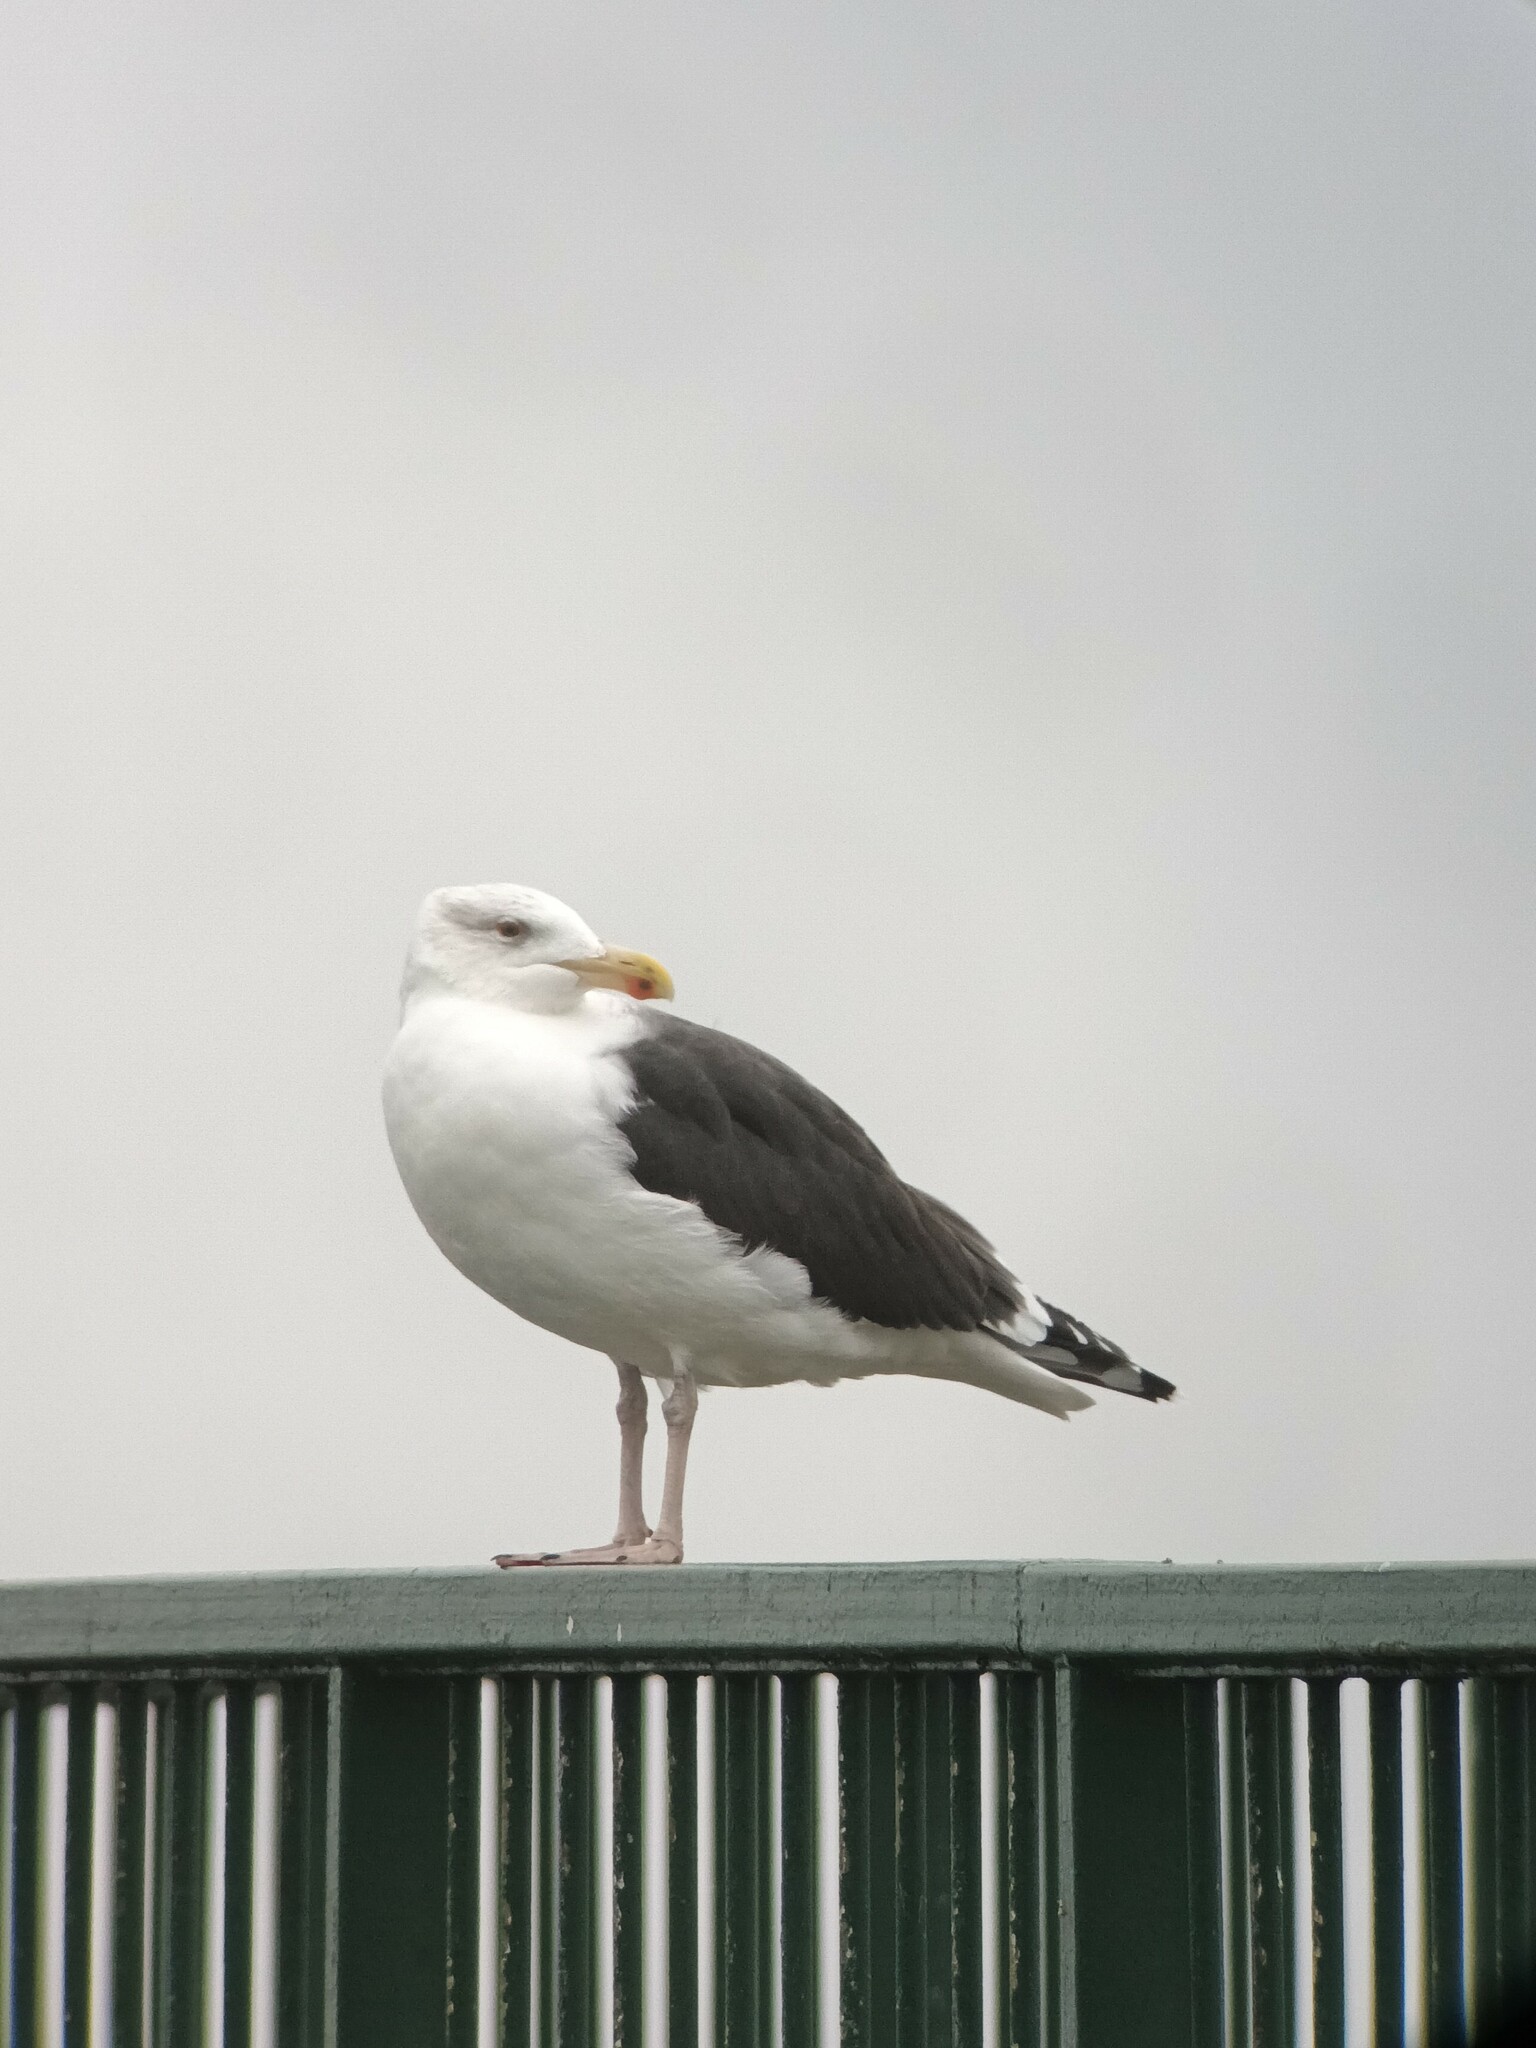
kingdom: Animalia
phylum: Chordata
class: Aves
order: Charadriiformes
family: Laridae
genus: Larus
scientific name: Larus marinus
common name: Great black-backed gull
